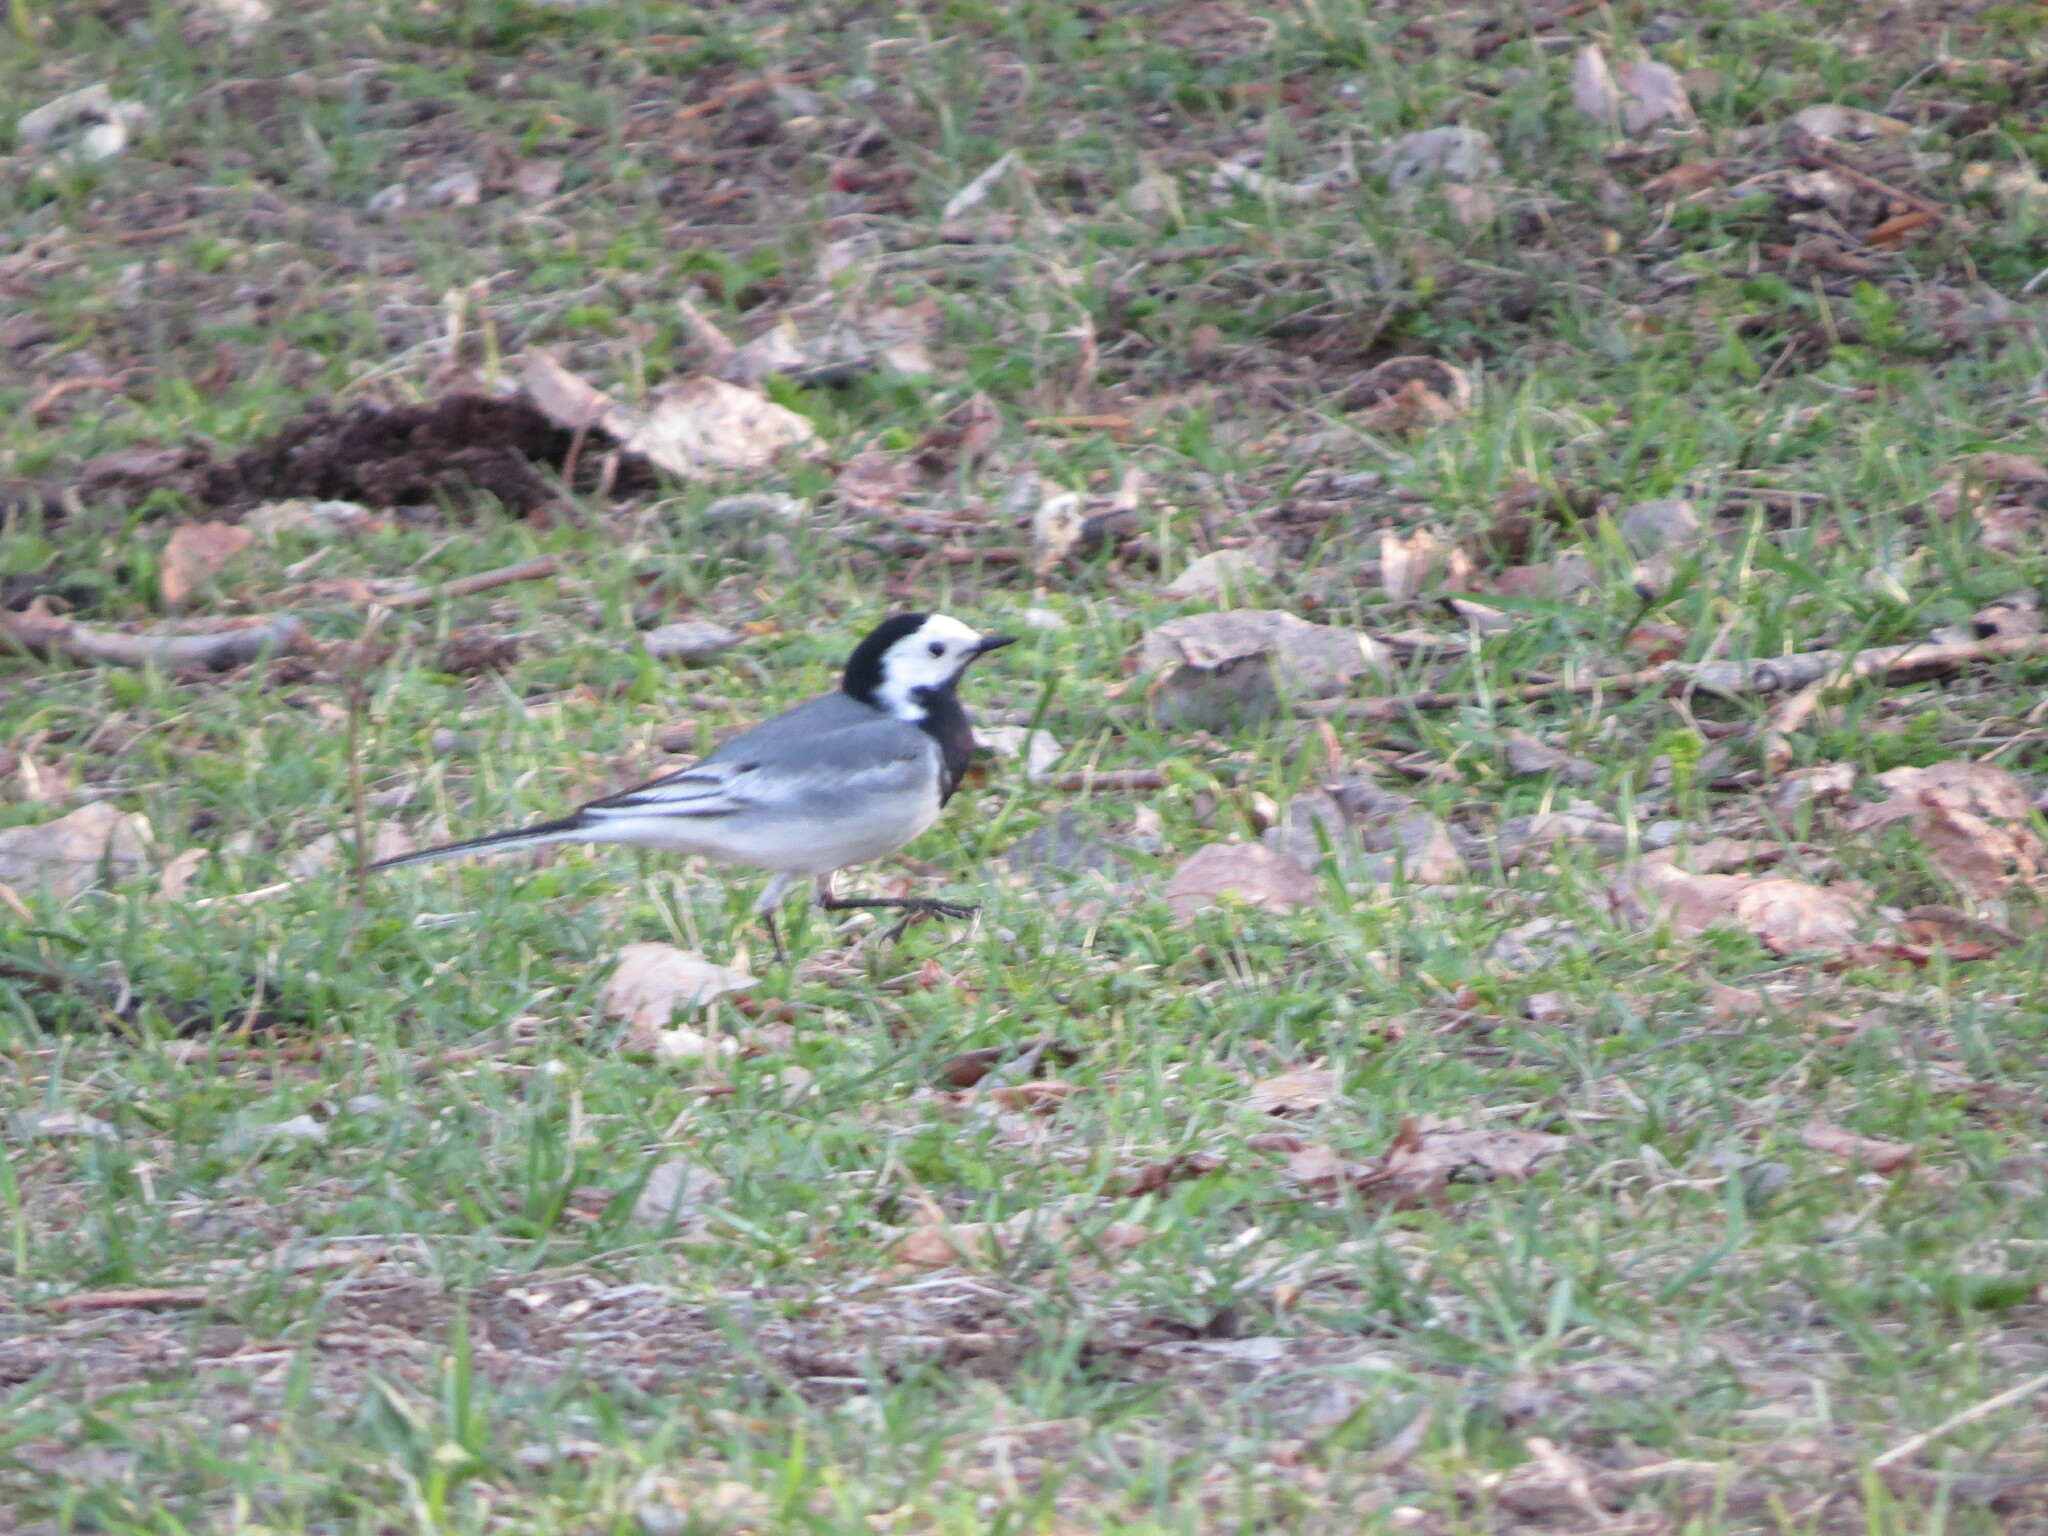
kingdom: Animalia
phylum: Chordata
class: Aves
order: Passeriformes
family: Motacillidae
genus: Motacilla
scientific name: Motacilla alba
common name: White wagtail
